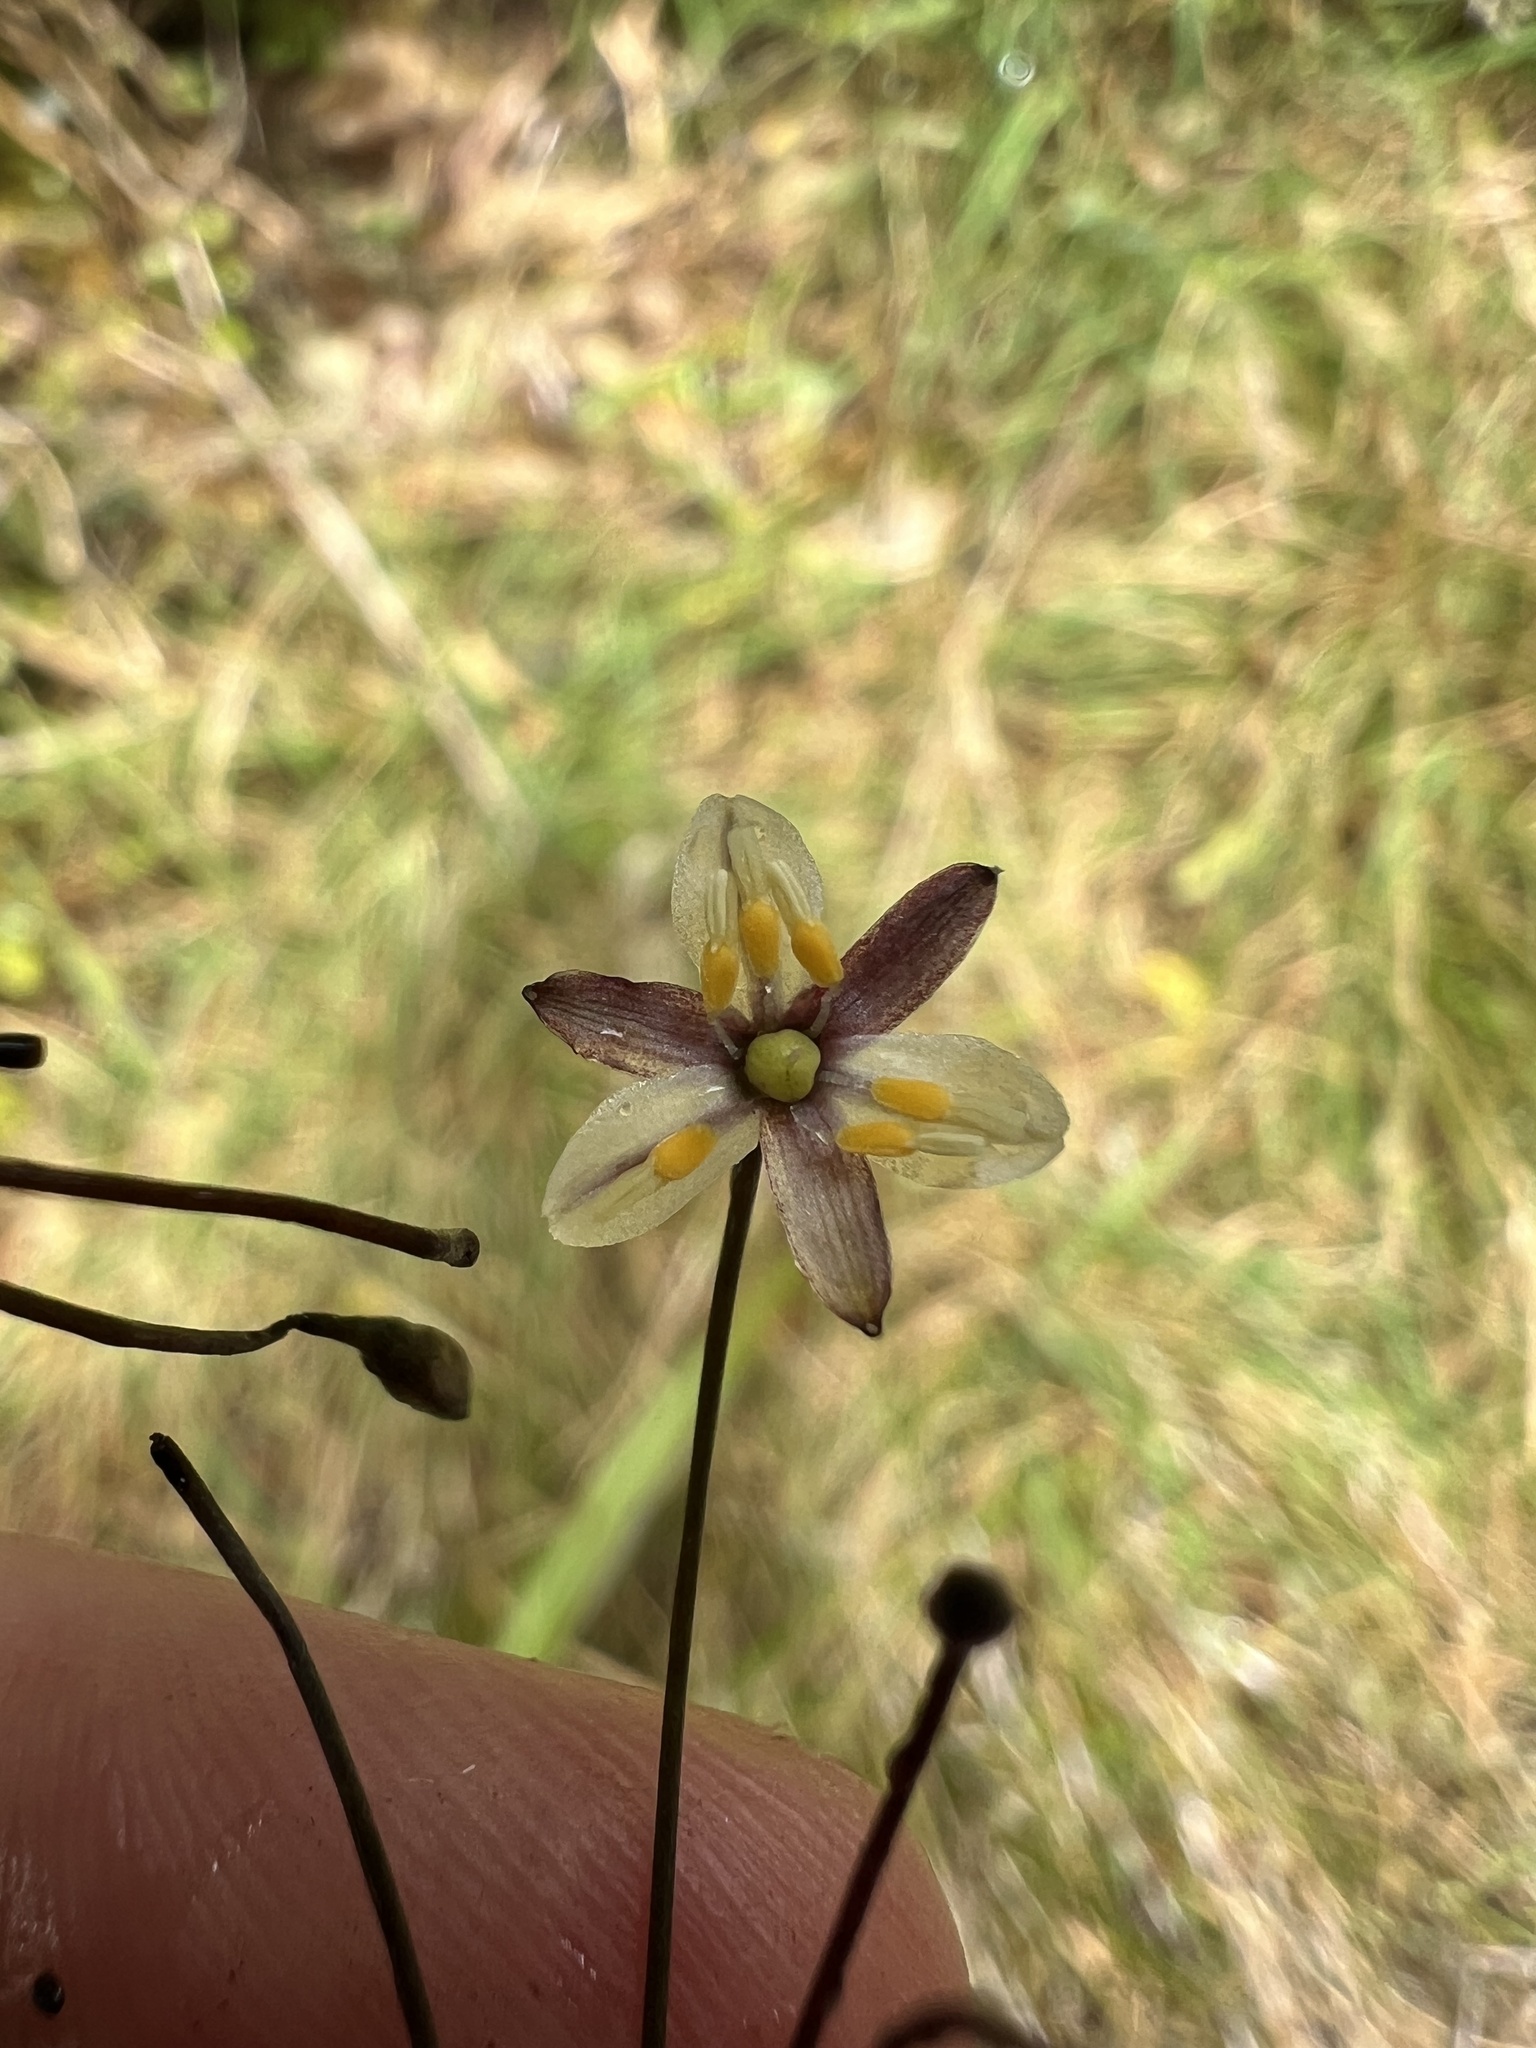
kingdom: Plantae
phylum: Tracheophyta
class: Liliopsida
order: Asparagales
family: Asphodelaceae
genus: Dianella
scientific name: Dianella nigra
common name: New zealand-blueberry
